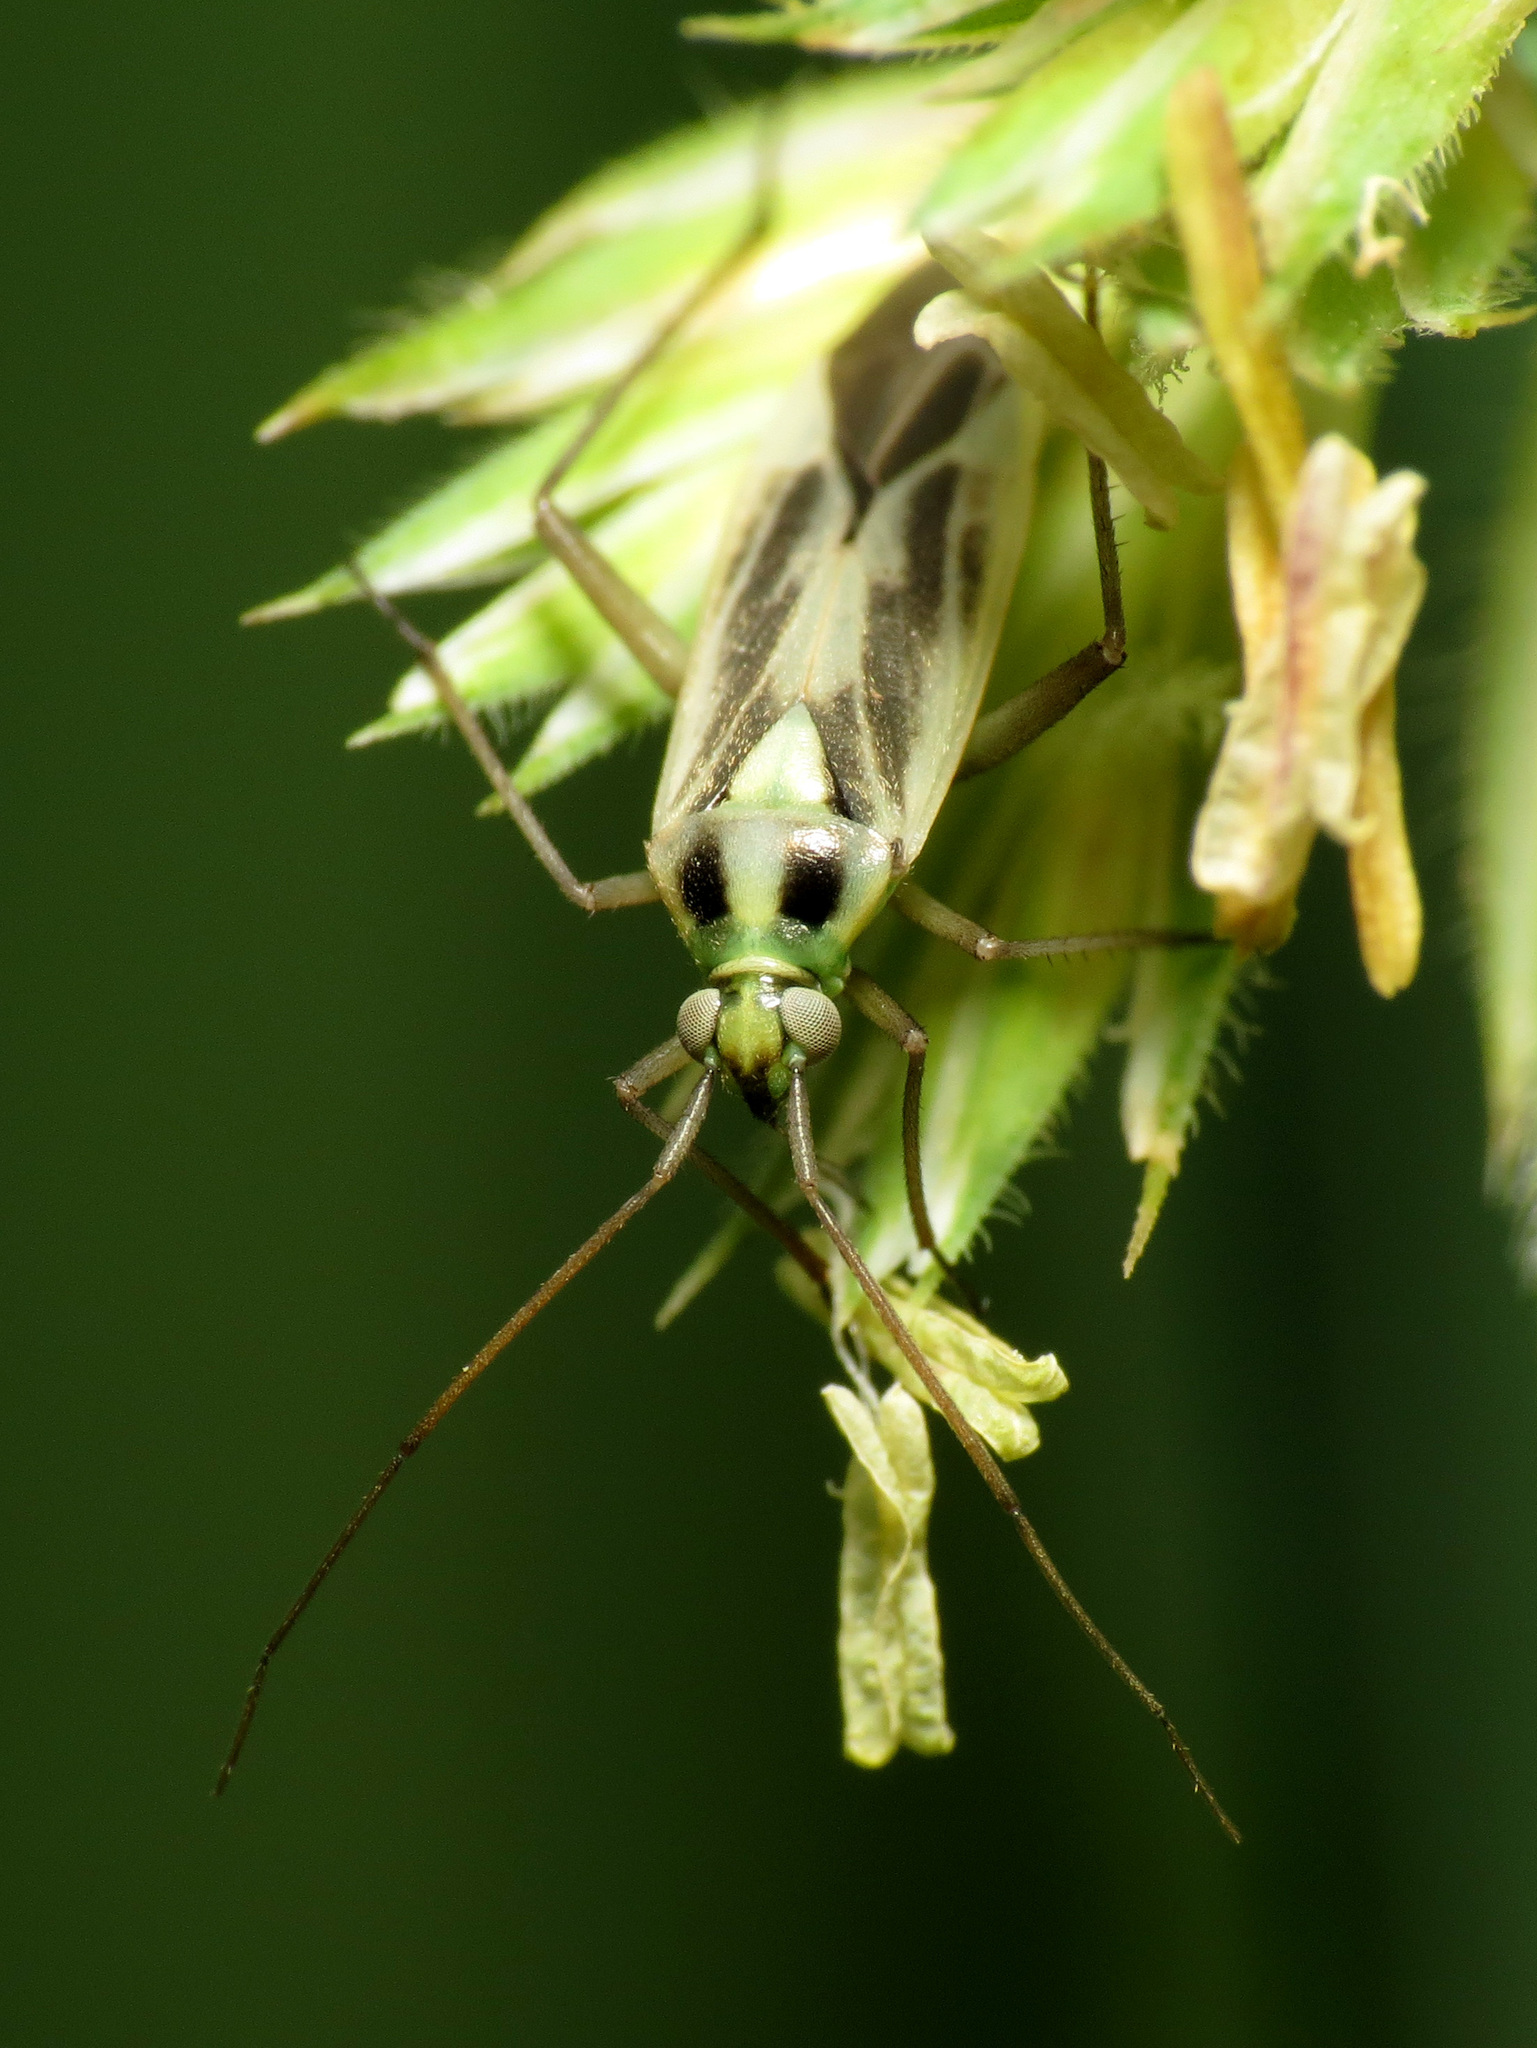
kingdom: Animalia
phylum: Arthropoda
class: Insecta
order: Hemiptera
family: Miridae
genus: Stenotus
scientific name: Stenotus binotatus
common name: Plant bug
